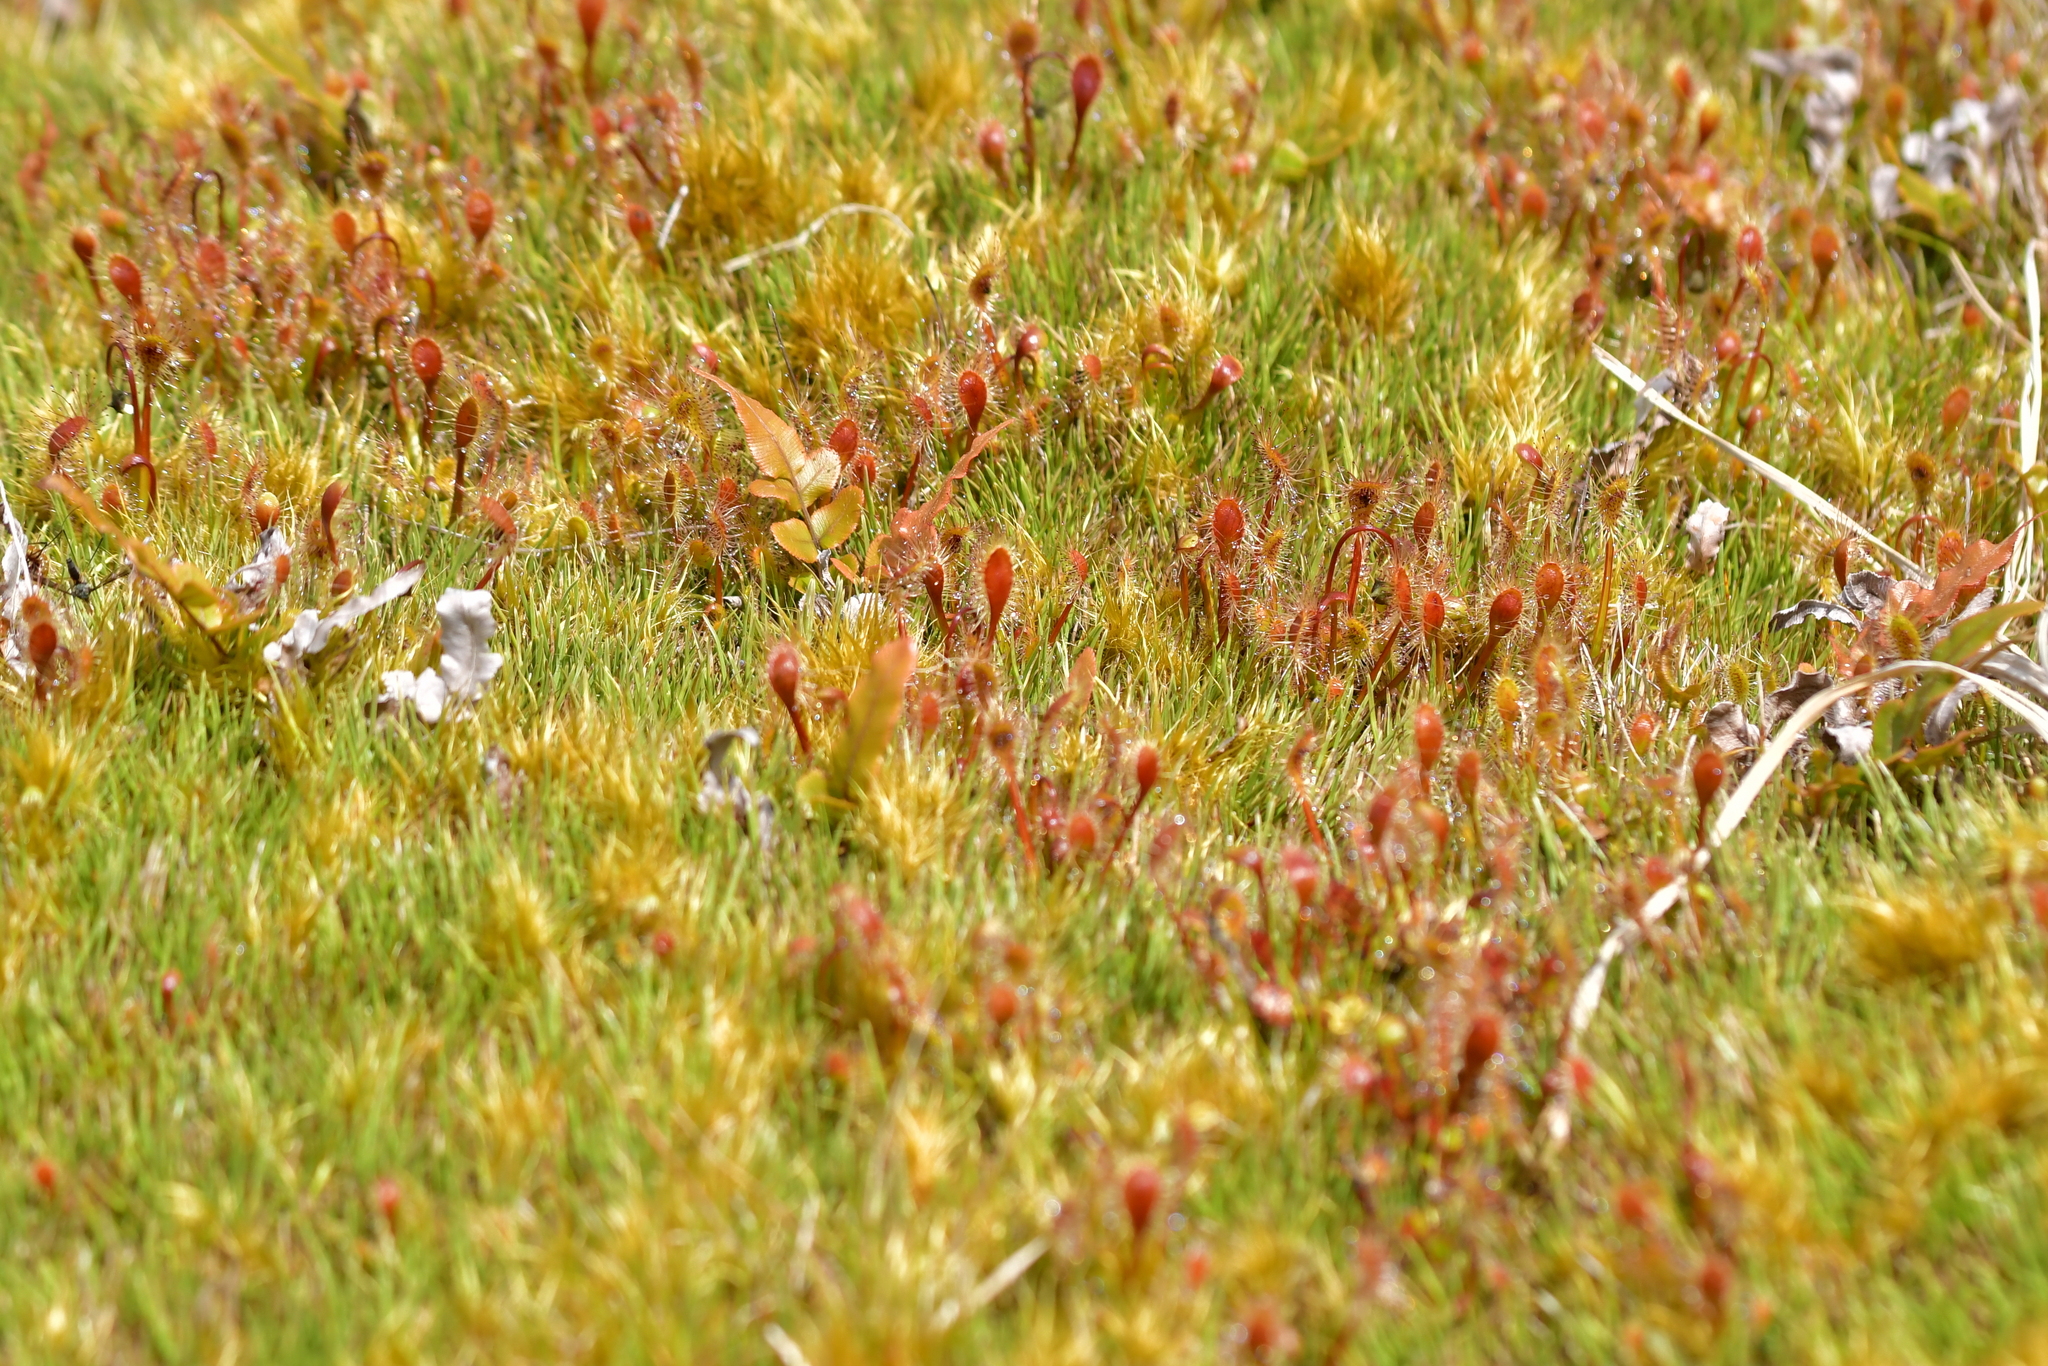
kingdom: Plantae
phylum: Tracheophyta
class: Magnoliopsida
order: Caryophyllales
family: Droseraceae
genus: Drosera
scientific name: Drosera stenopetala
